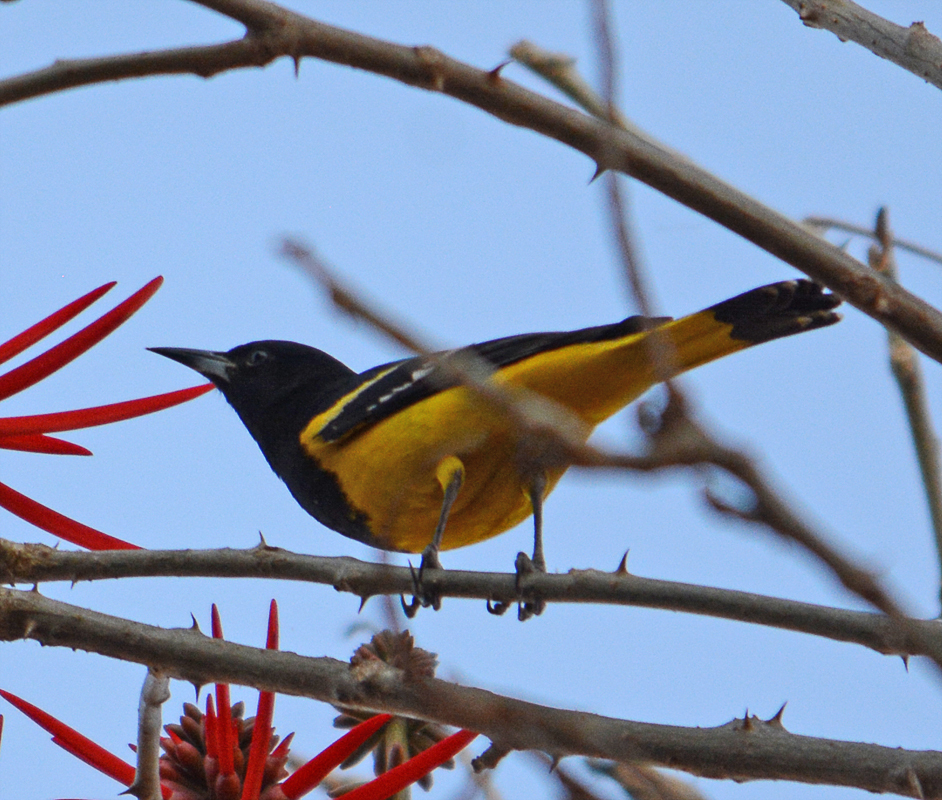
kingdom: Animalia
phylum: Chordata
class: Aves
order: Passeriformes
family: Icteridae
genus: Icterus
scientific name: Icterus parisorum
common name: Scott's oriole
